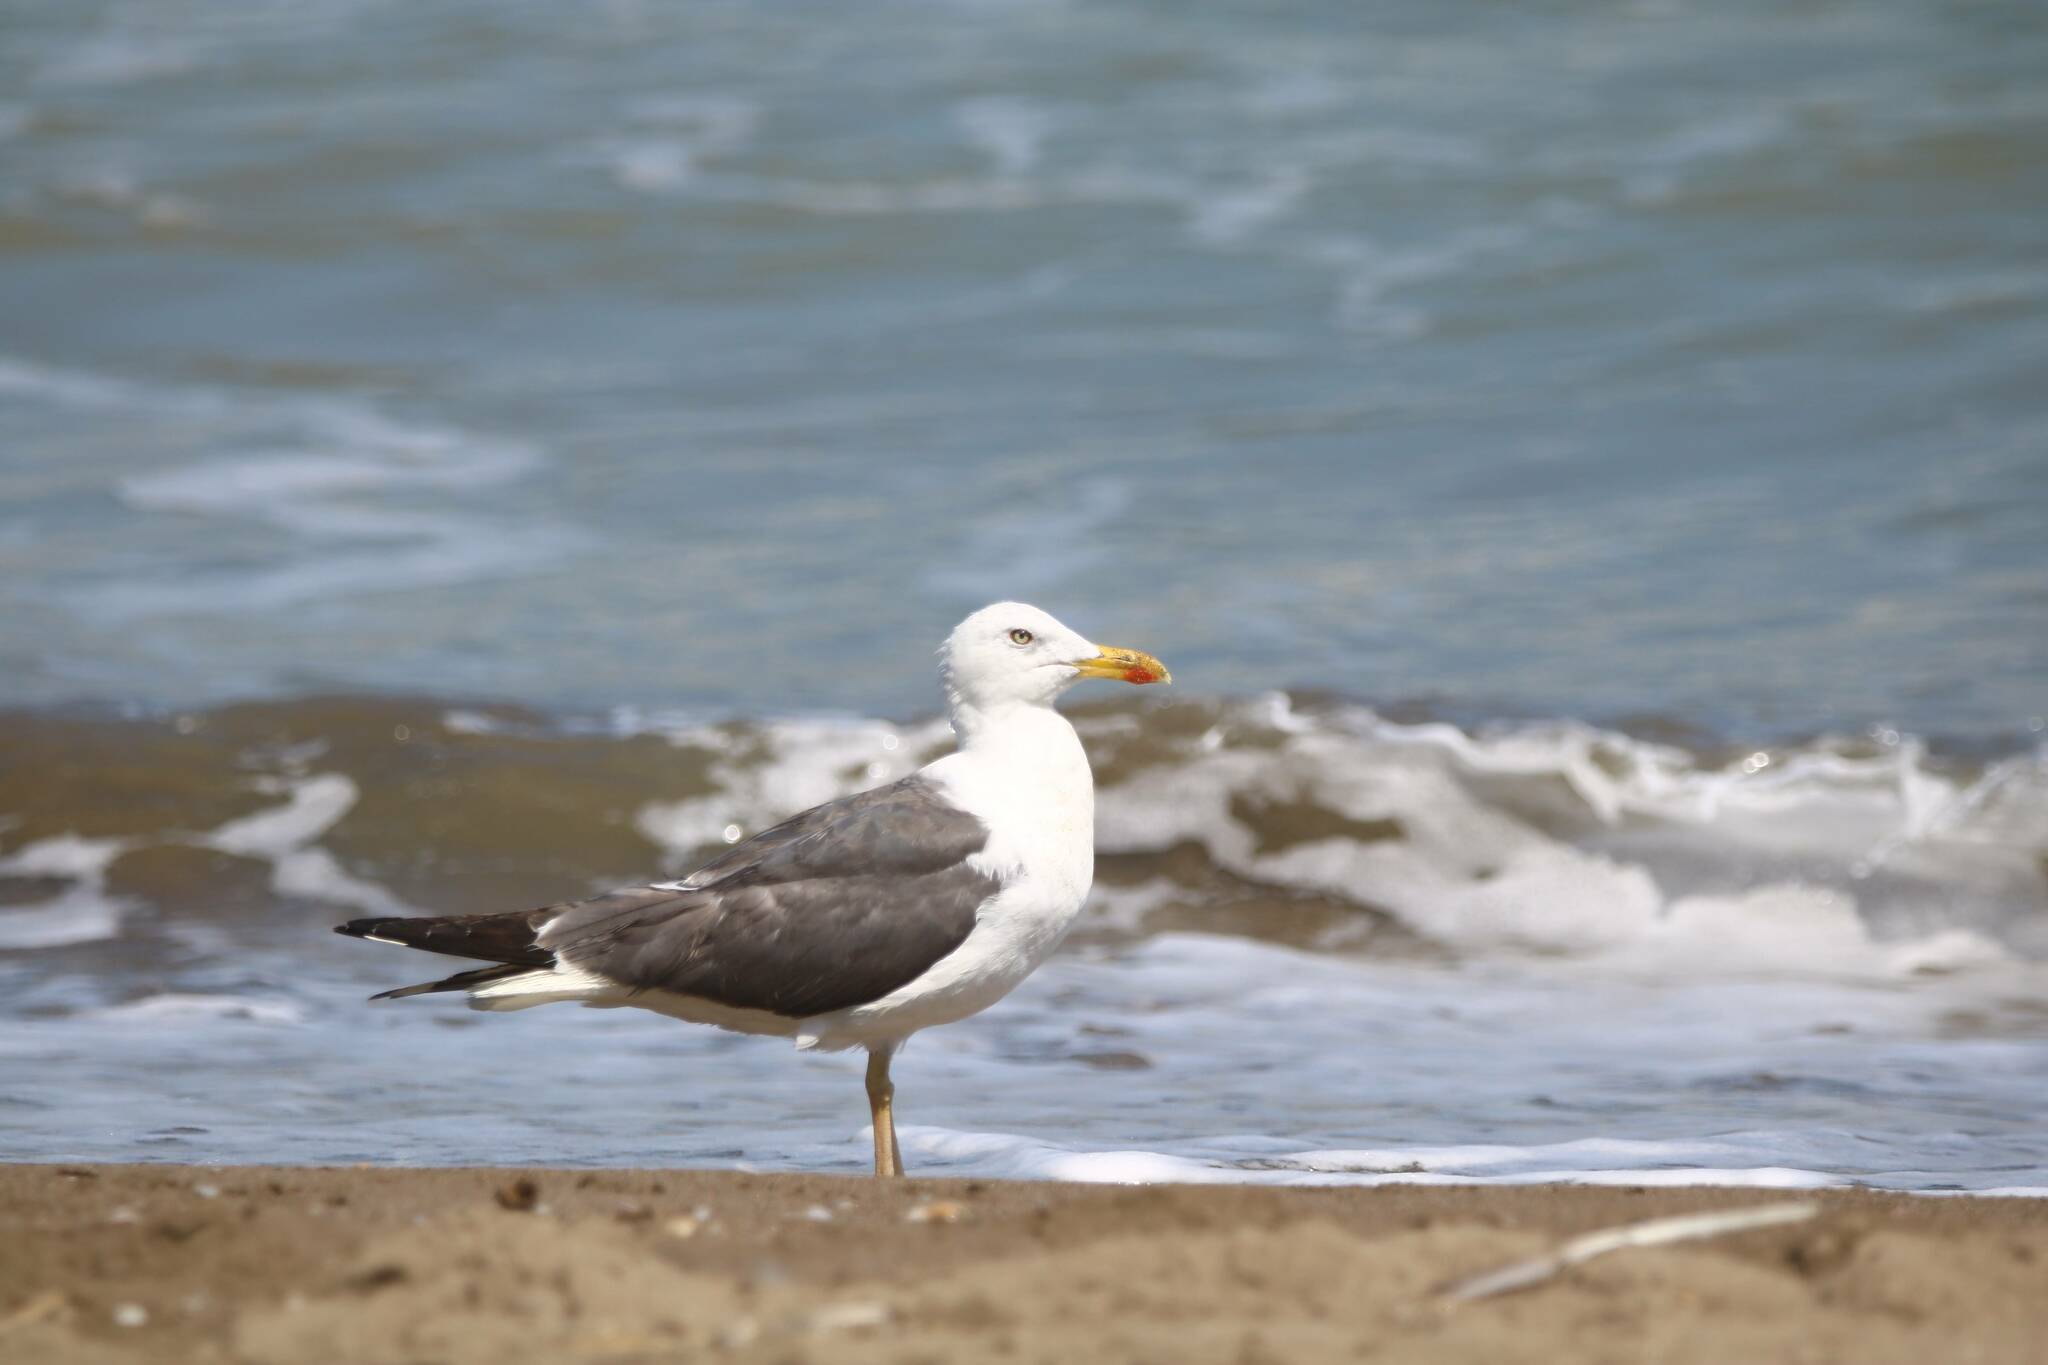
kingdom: Animalia
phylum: Chordata
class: Aves
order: Charadriiformes
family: Laridae
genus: Larus
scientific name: Larus fuscus
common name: Lesser black-backed gull
